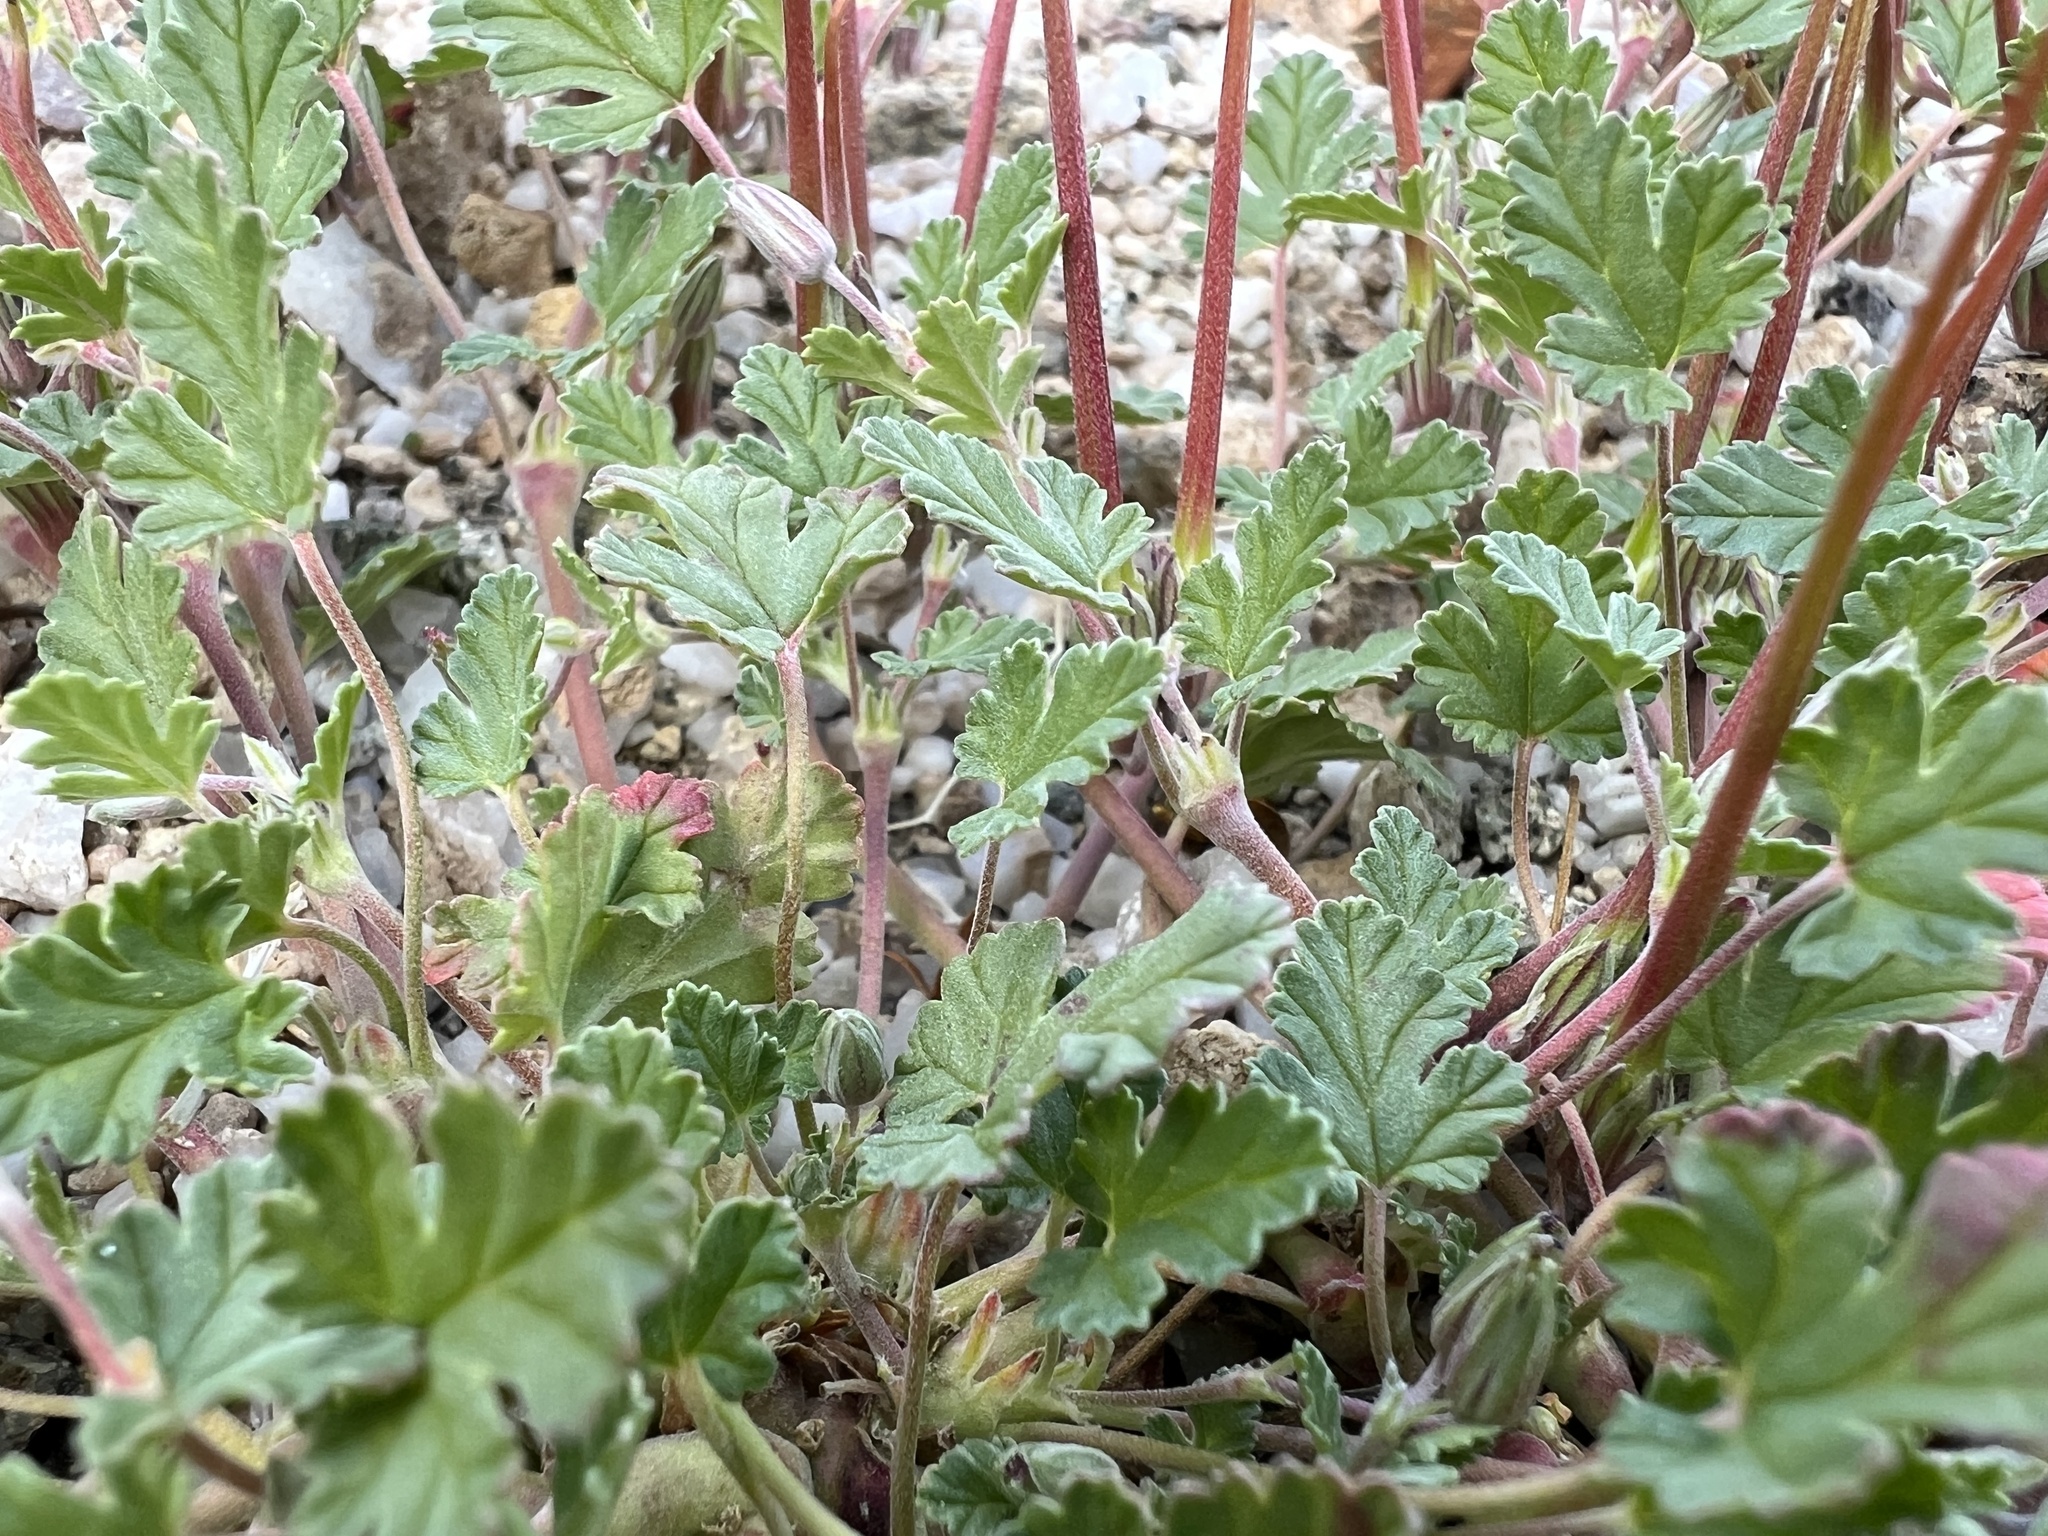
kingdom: Plantae
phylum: Tracheophyta
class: Magnoliopsida
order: Geraniales
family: Geraniaceae
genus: Erodium
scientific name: Erodium texanum
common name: Texas stork's-bill
